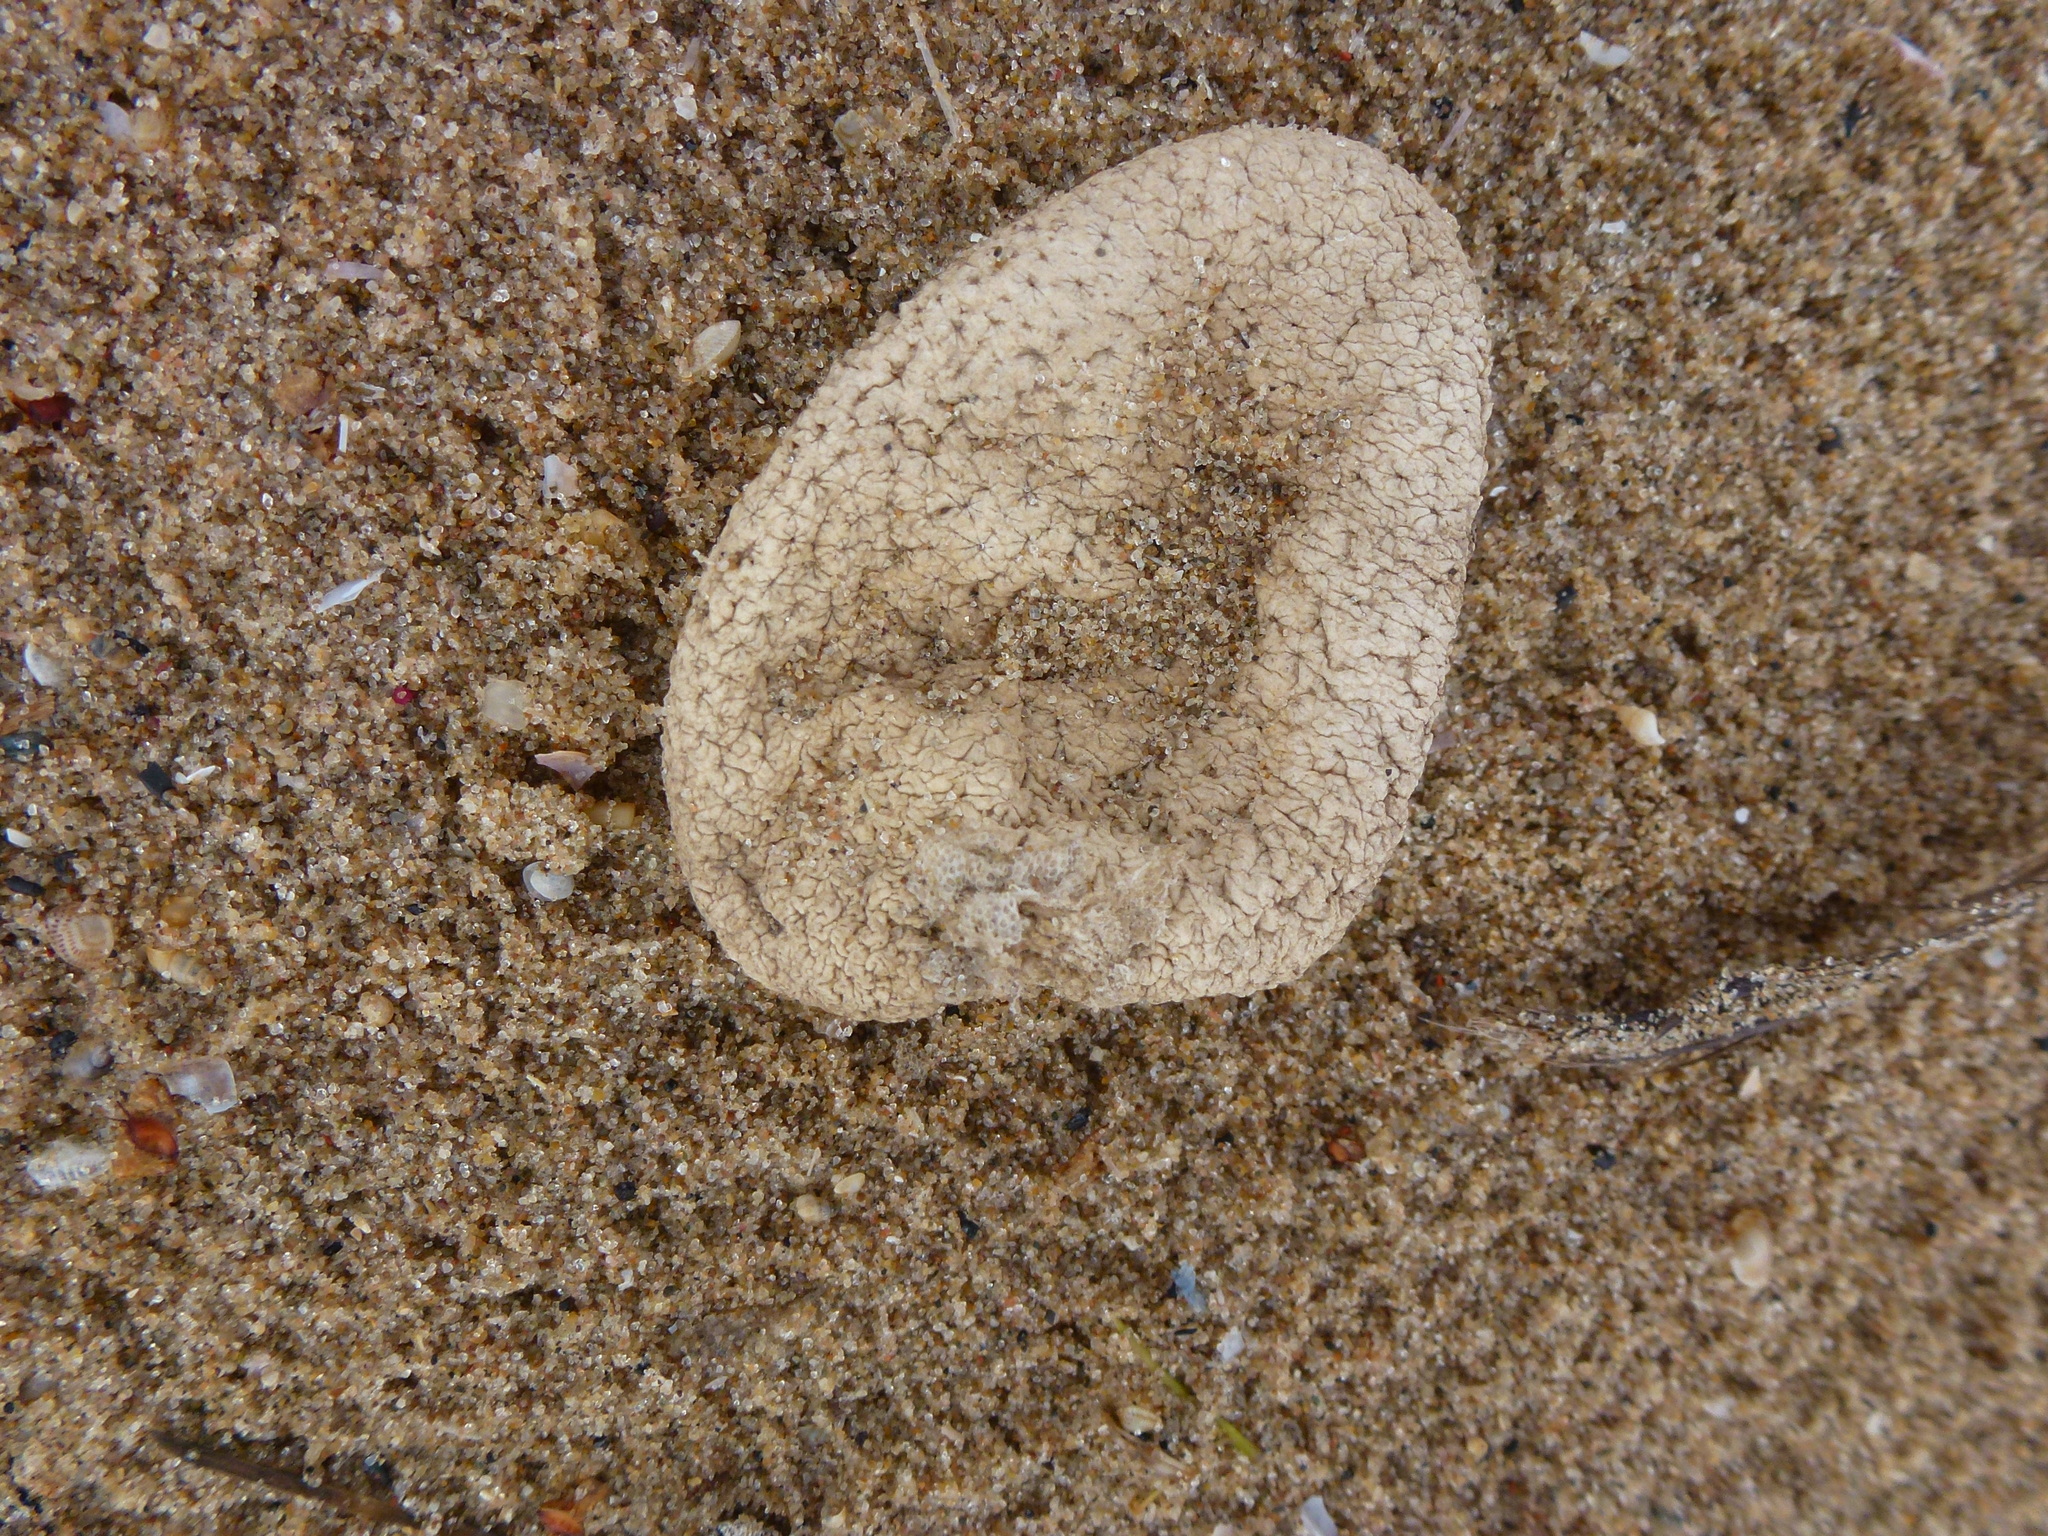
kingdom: Animalia
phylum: Cnidaria
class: Anthozoa
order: Malacalcyonacea
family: Alcyoniidae
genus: Alcyonium
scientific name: Alcyonium digitatum
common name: Dead man's fingers
